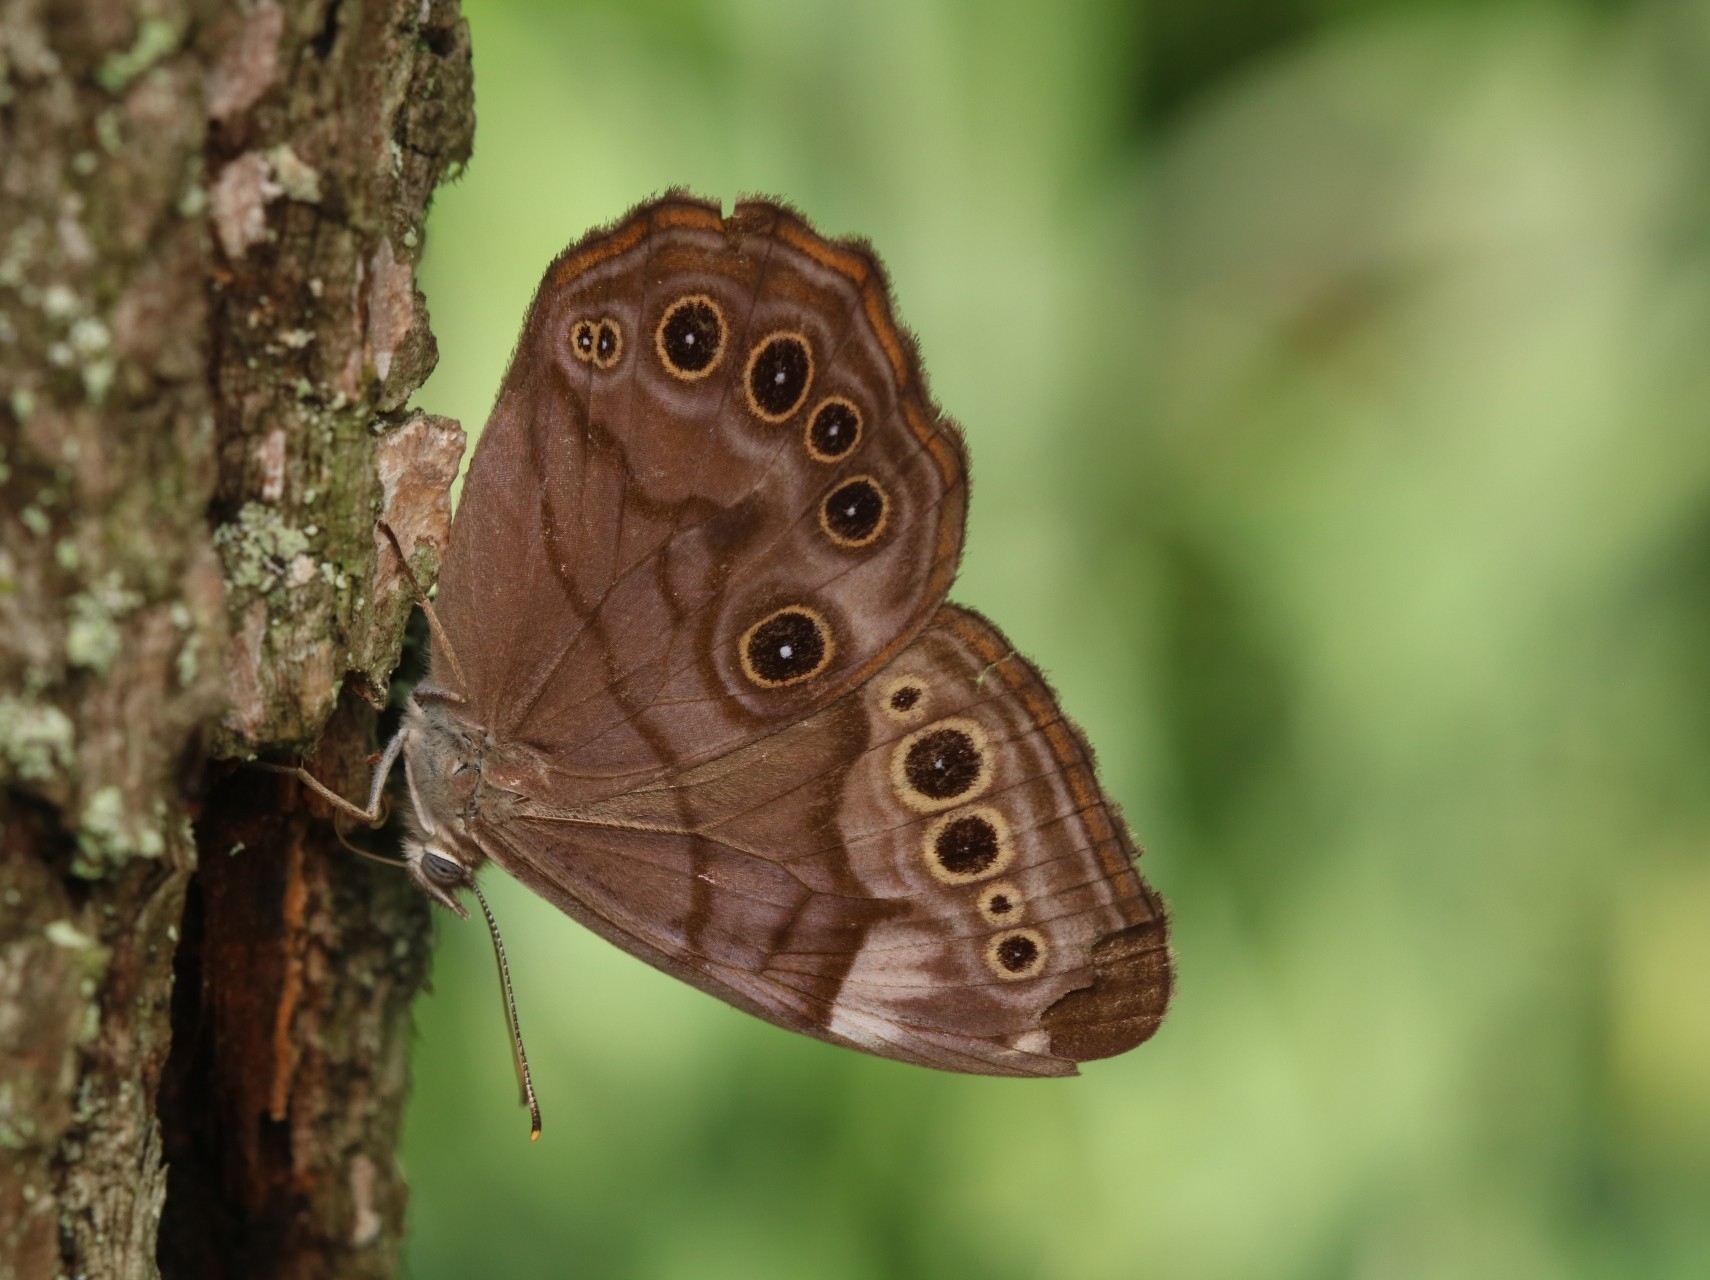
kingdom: Animalia
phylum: Arthropoda
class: Insecta
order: Lepidoptera
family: Nymphalidae
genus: Lethe
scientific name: Lethe anthedon
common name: Northern pearly-eye
